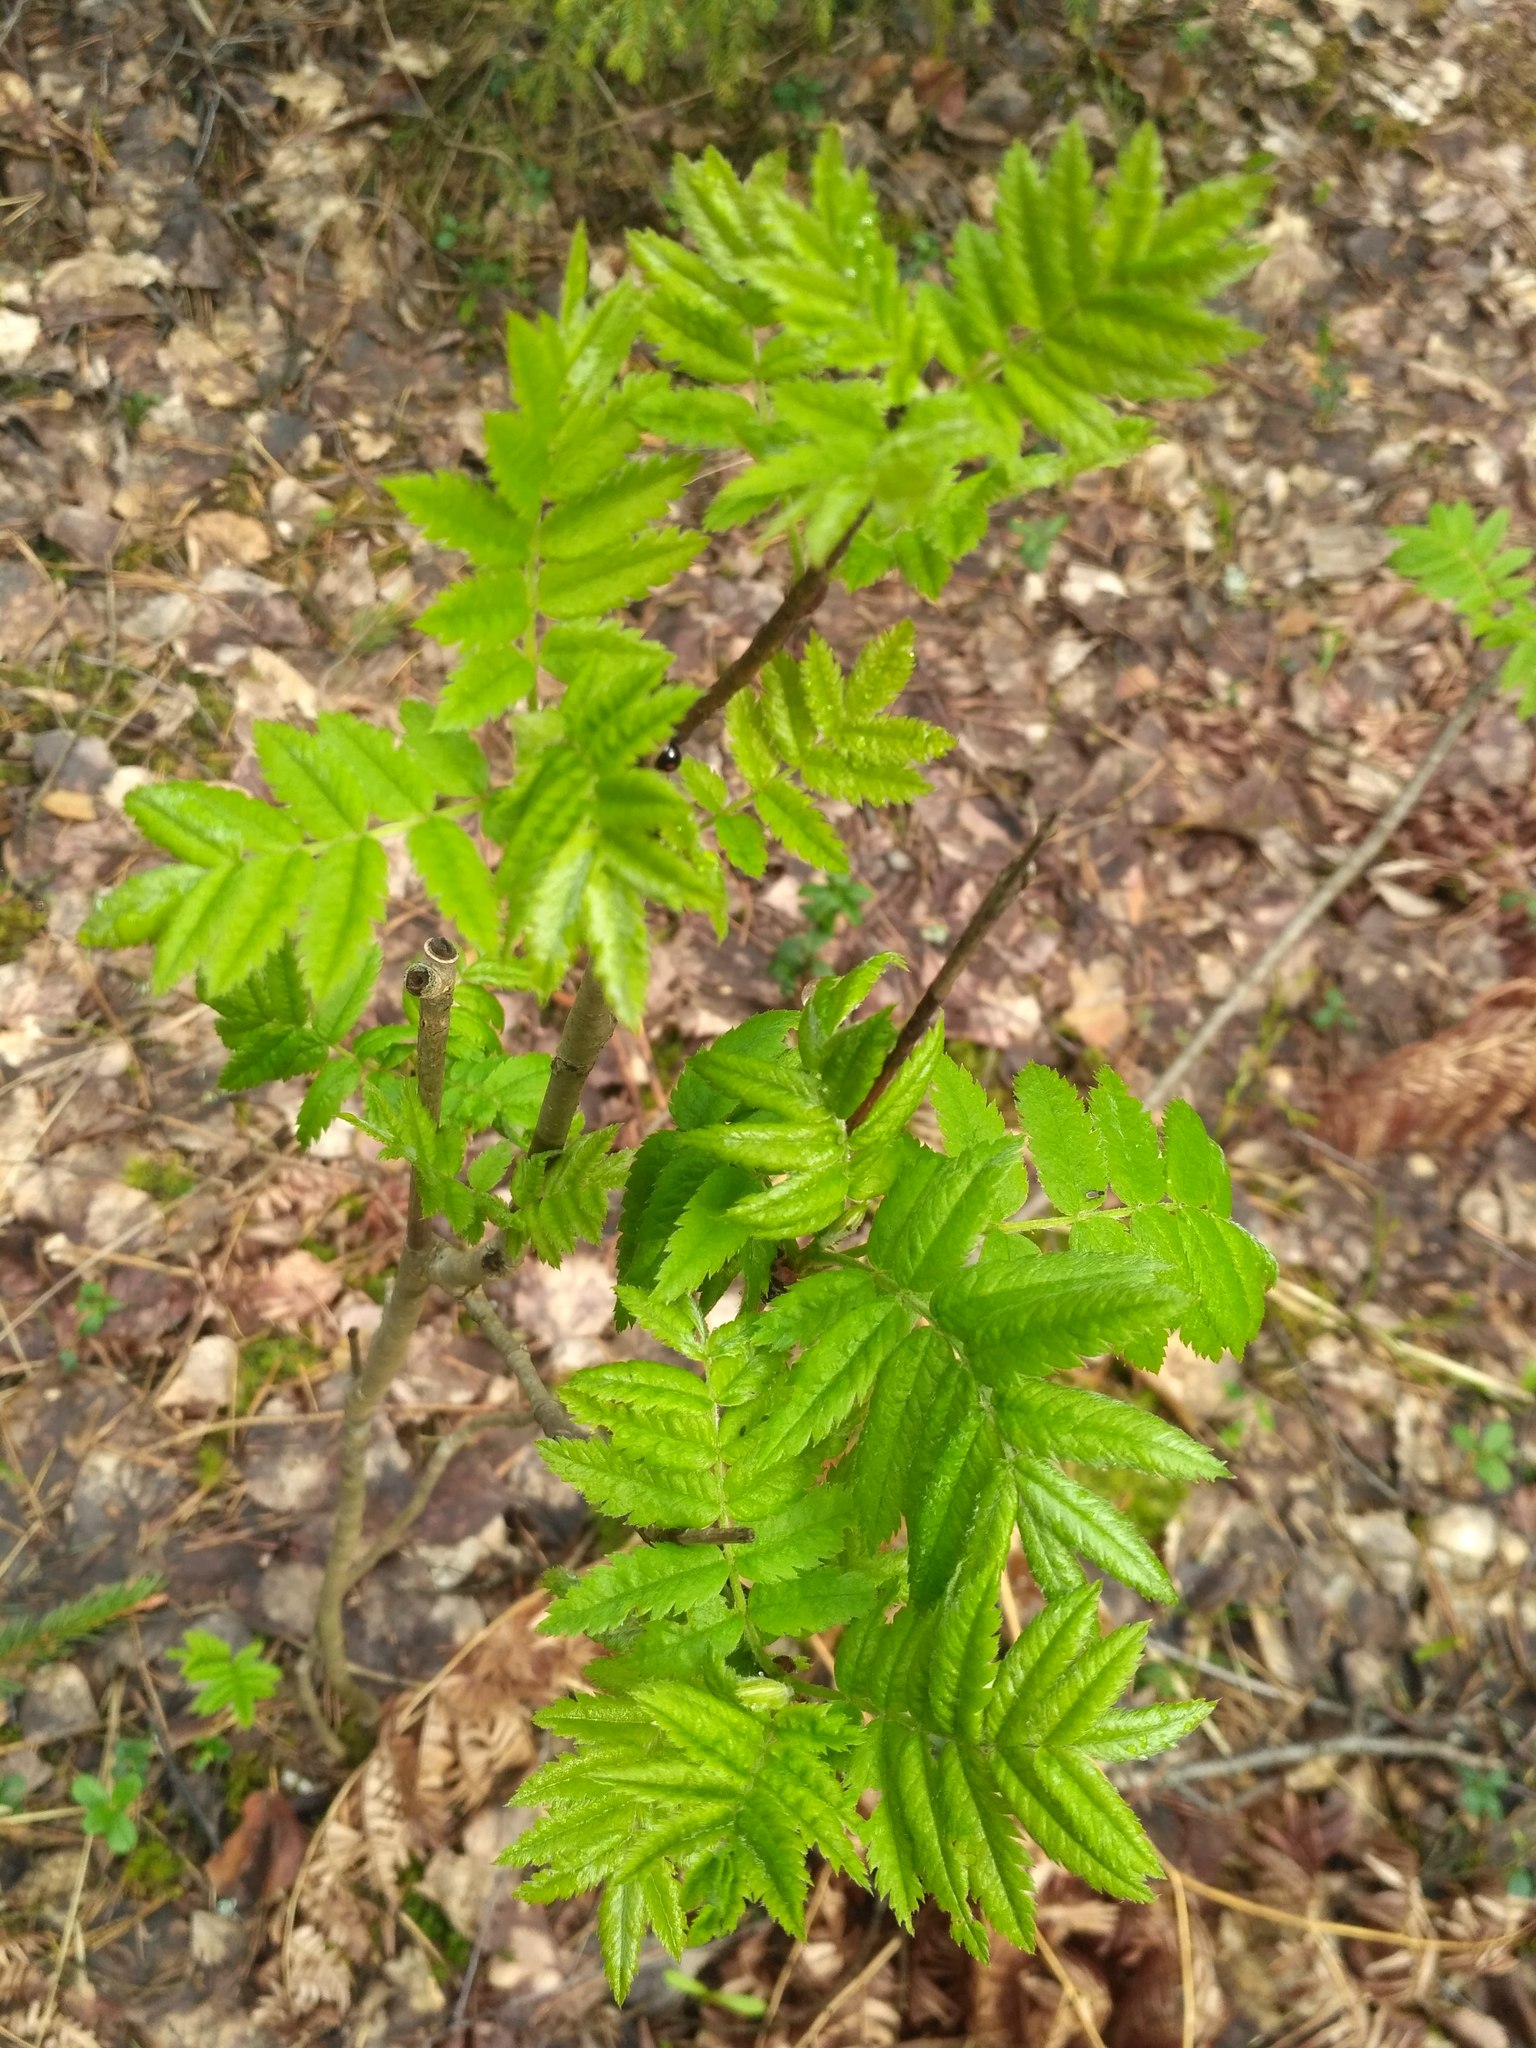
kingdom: Plantae
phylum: Tracheophyta
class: Magnoliopsida
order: Rosales
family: Rosaceae
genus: Sorbus
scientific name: Sorbus aucuparia
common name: Rowan
